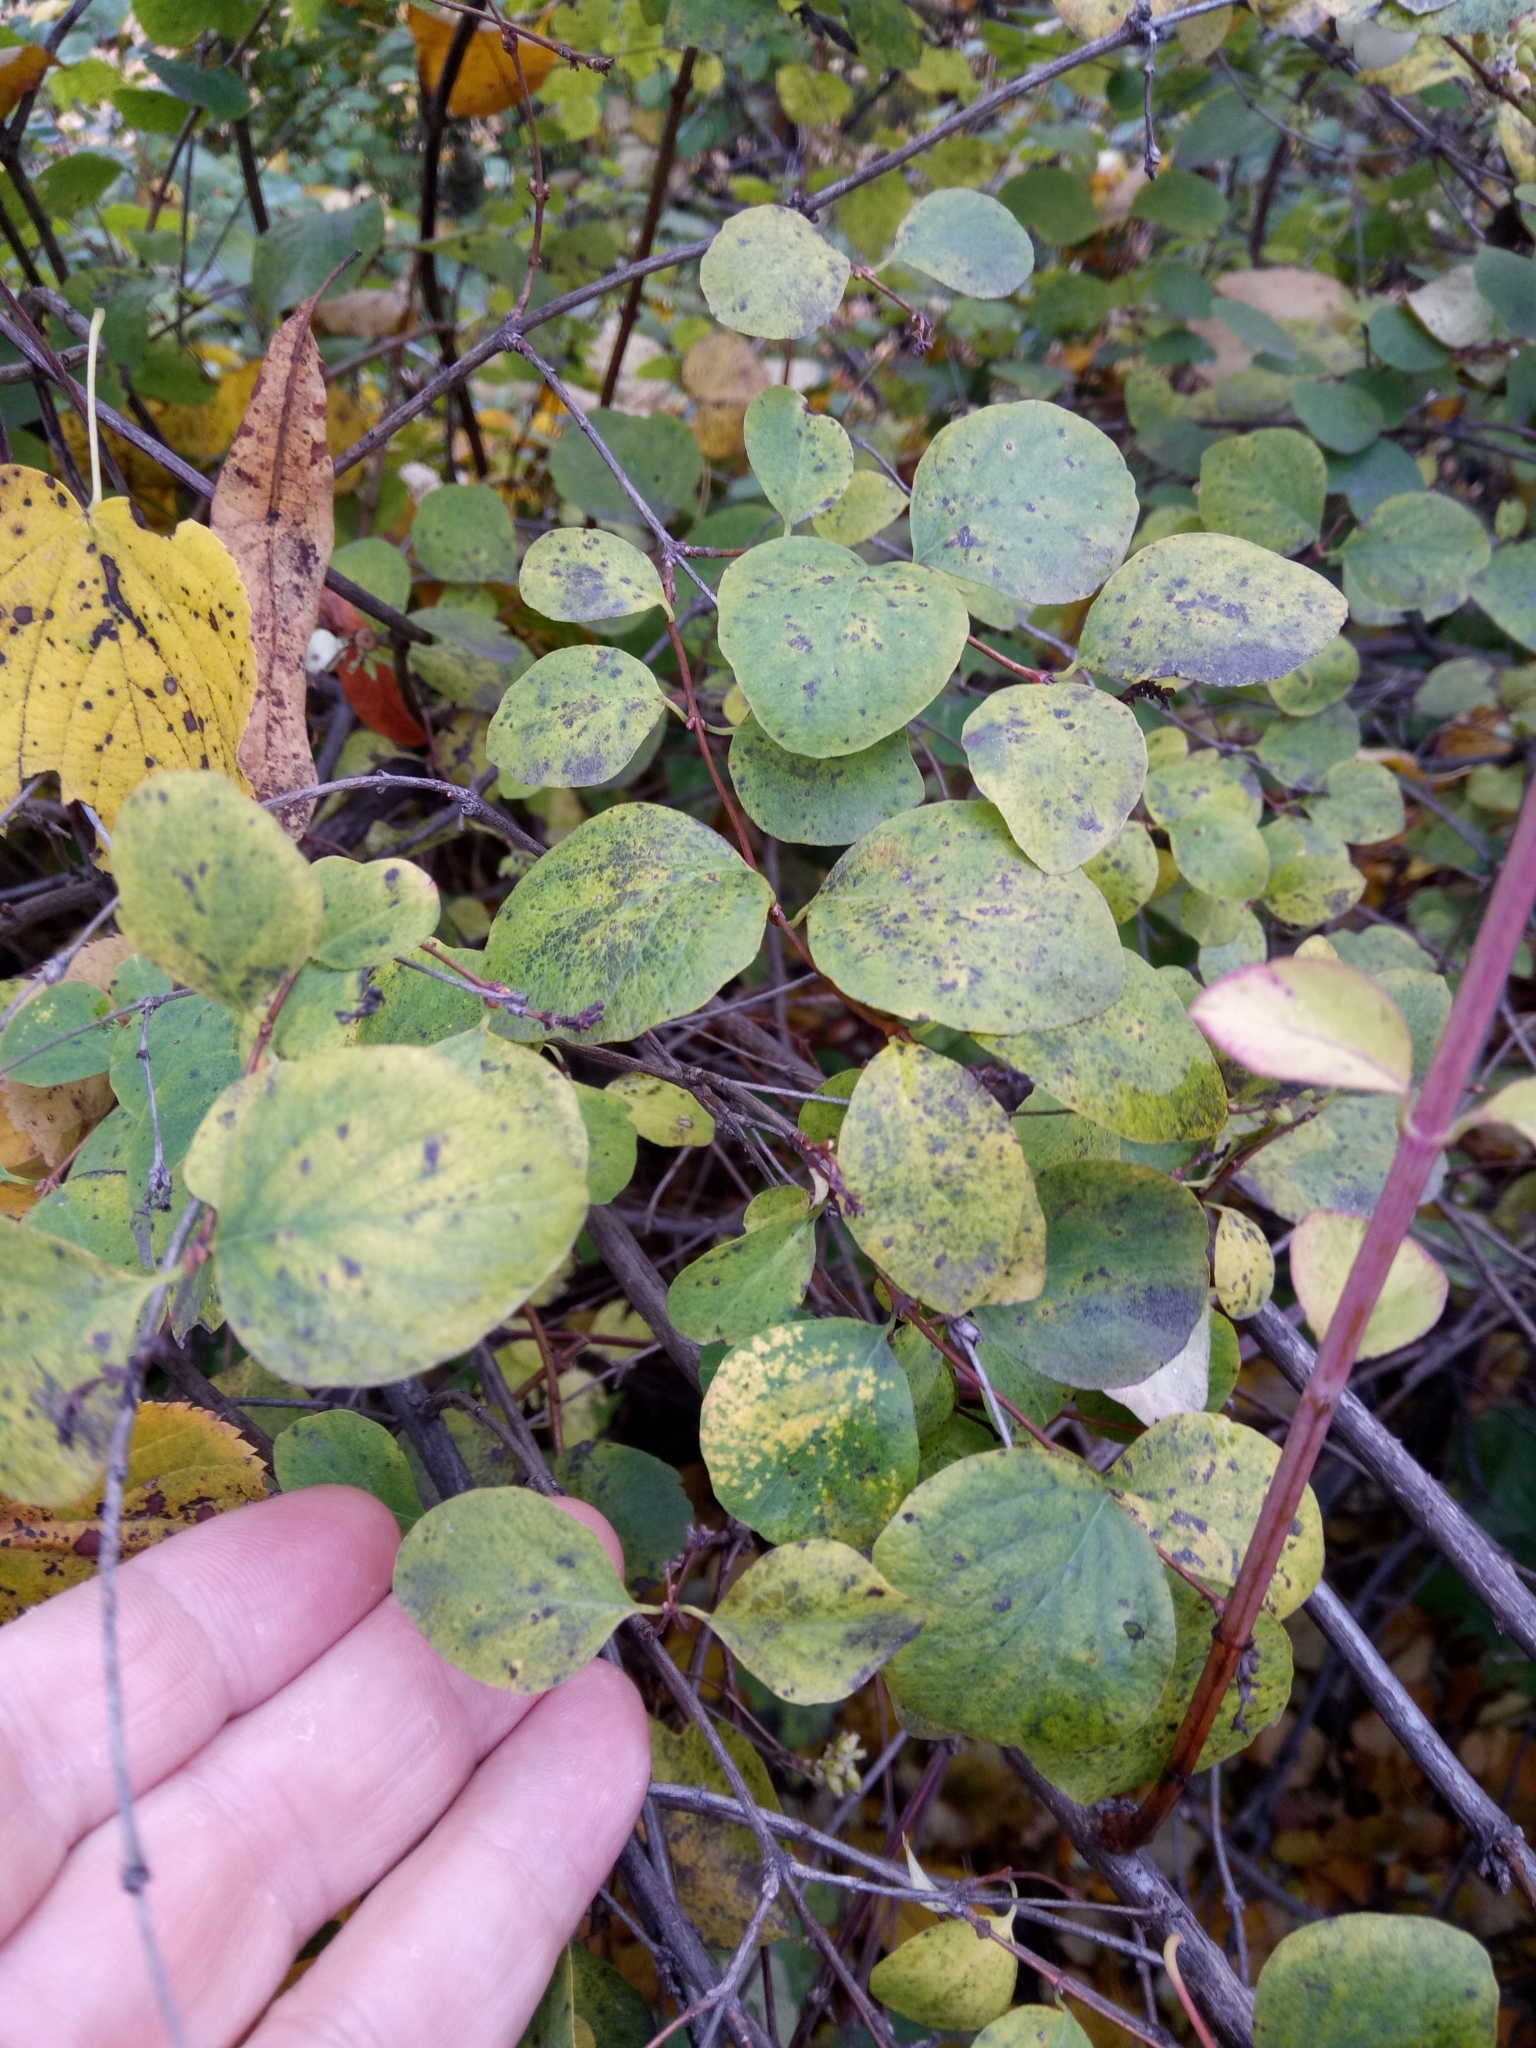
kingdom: Plantae
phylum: Tracheophyta
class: Magnoliopsida
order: Dipsacales
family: Caprifoliaceae
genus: Symphoricarpos
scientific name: Symphoricarpos albus
